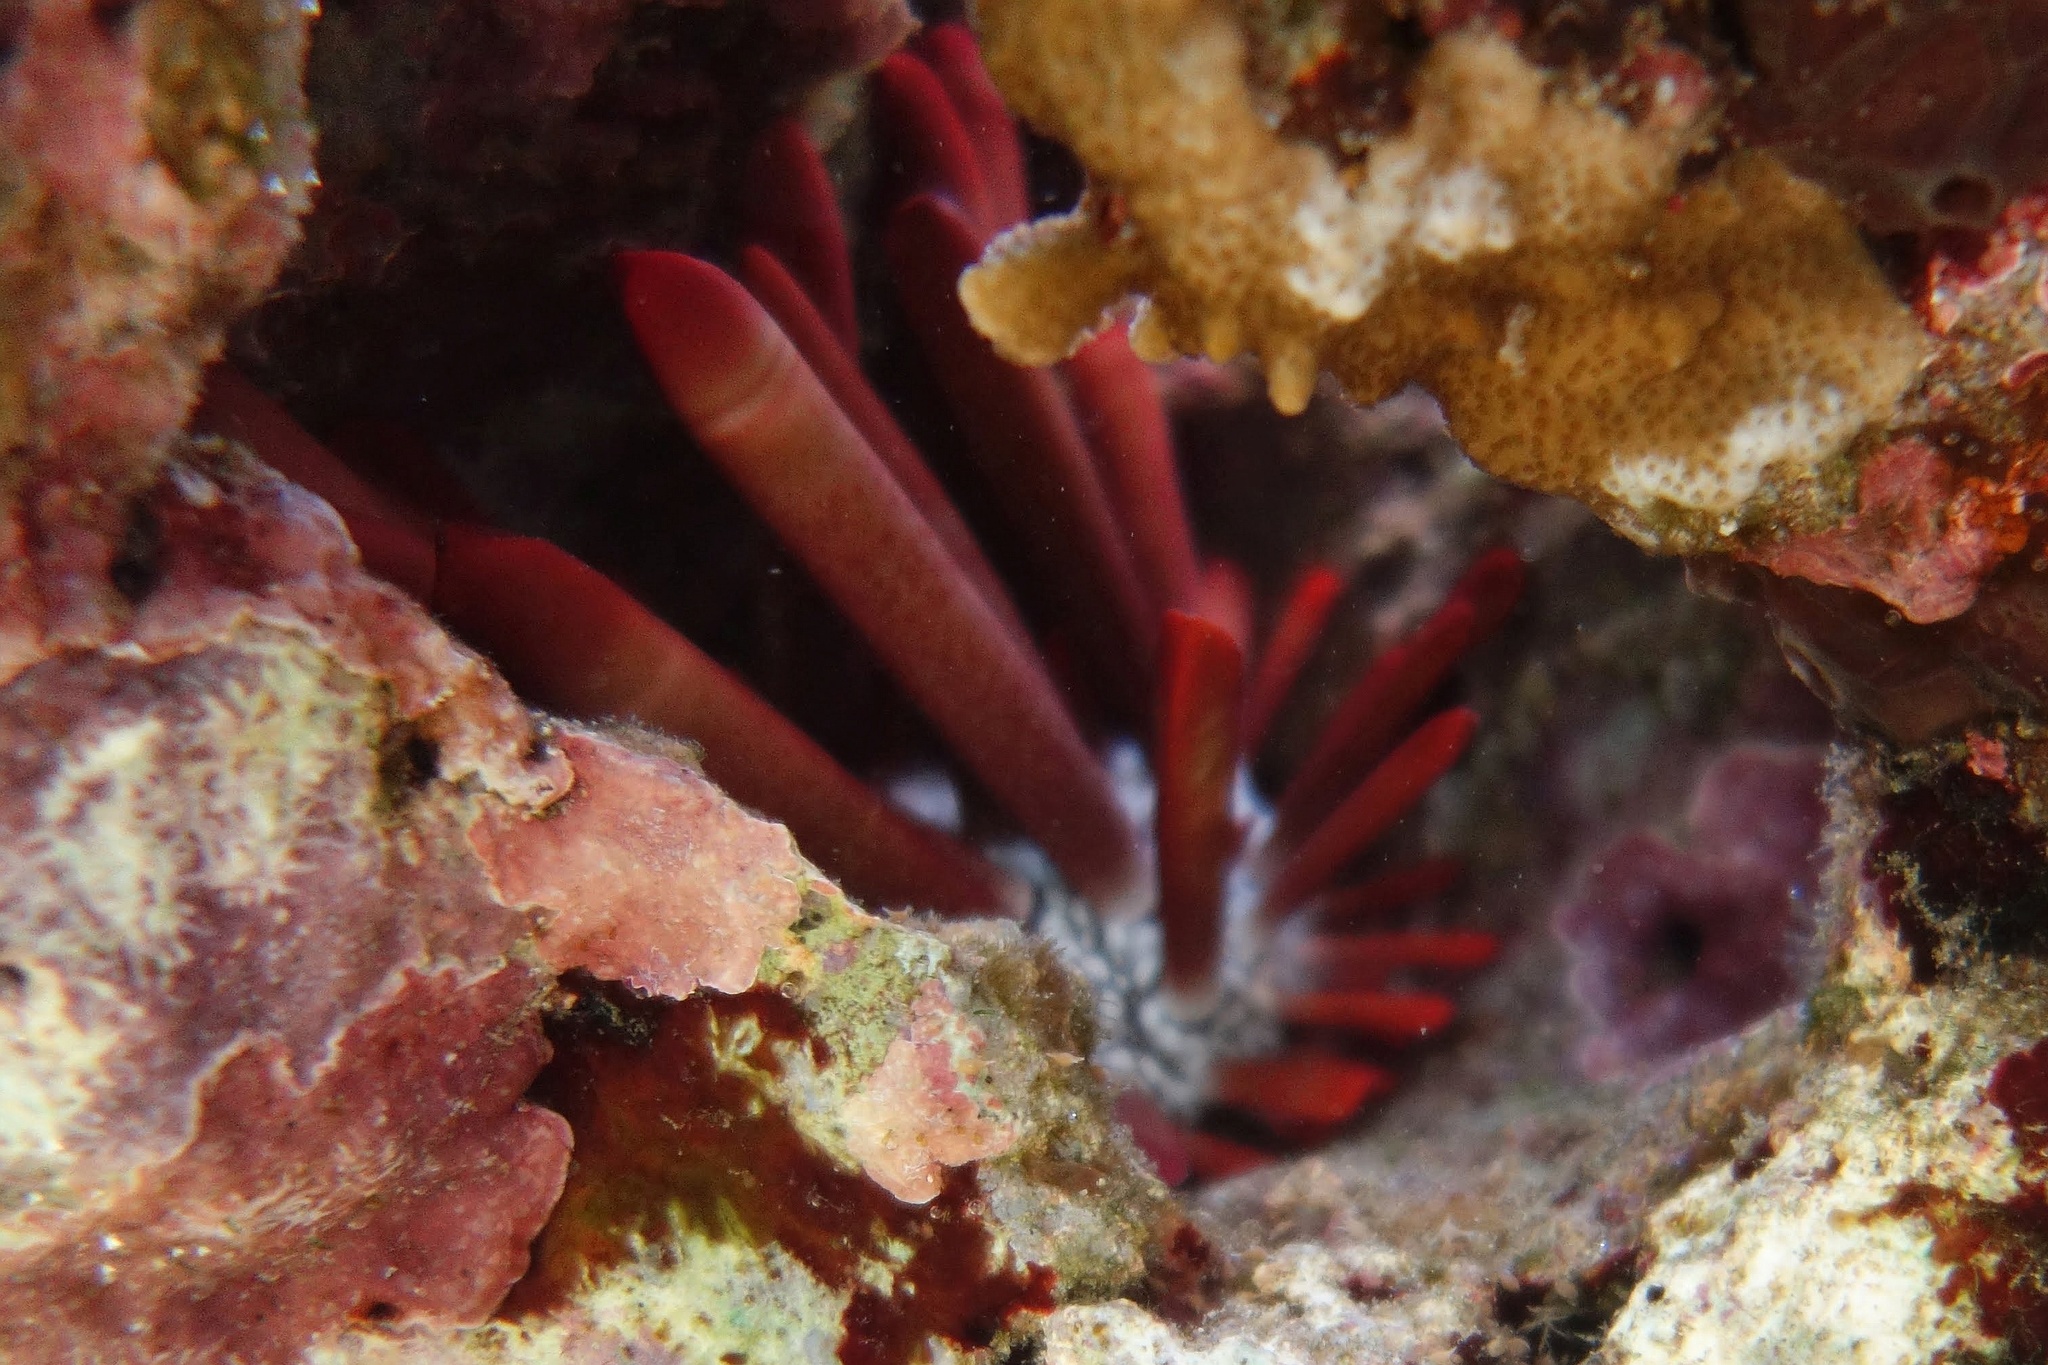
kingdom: Animalia
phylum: Echinodermata
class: Echinoidea
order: Camarodonta
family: Echinometridae
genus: Heterocentrotus
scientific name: Heterocentrotus mamillatus
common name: Slate pencil urchin
